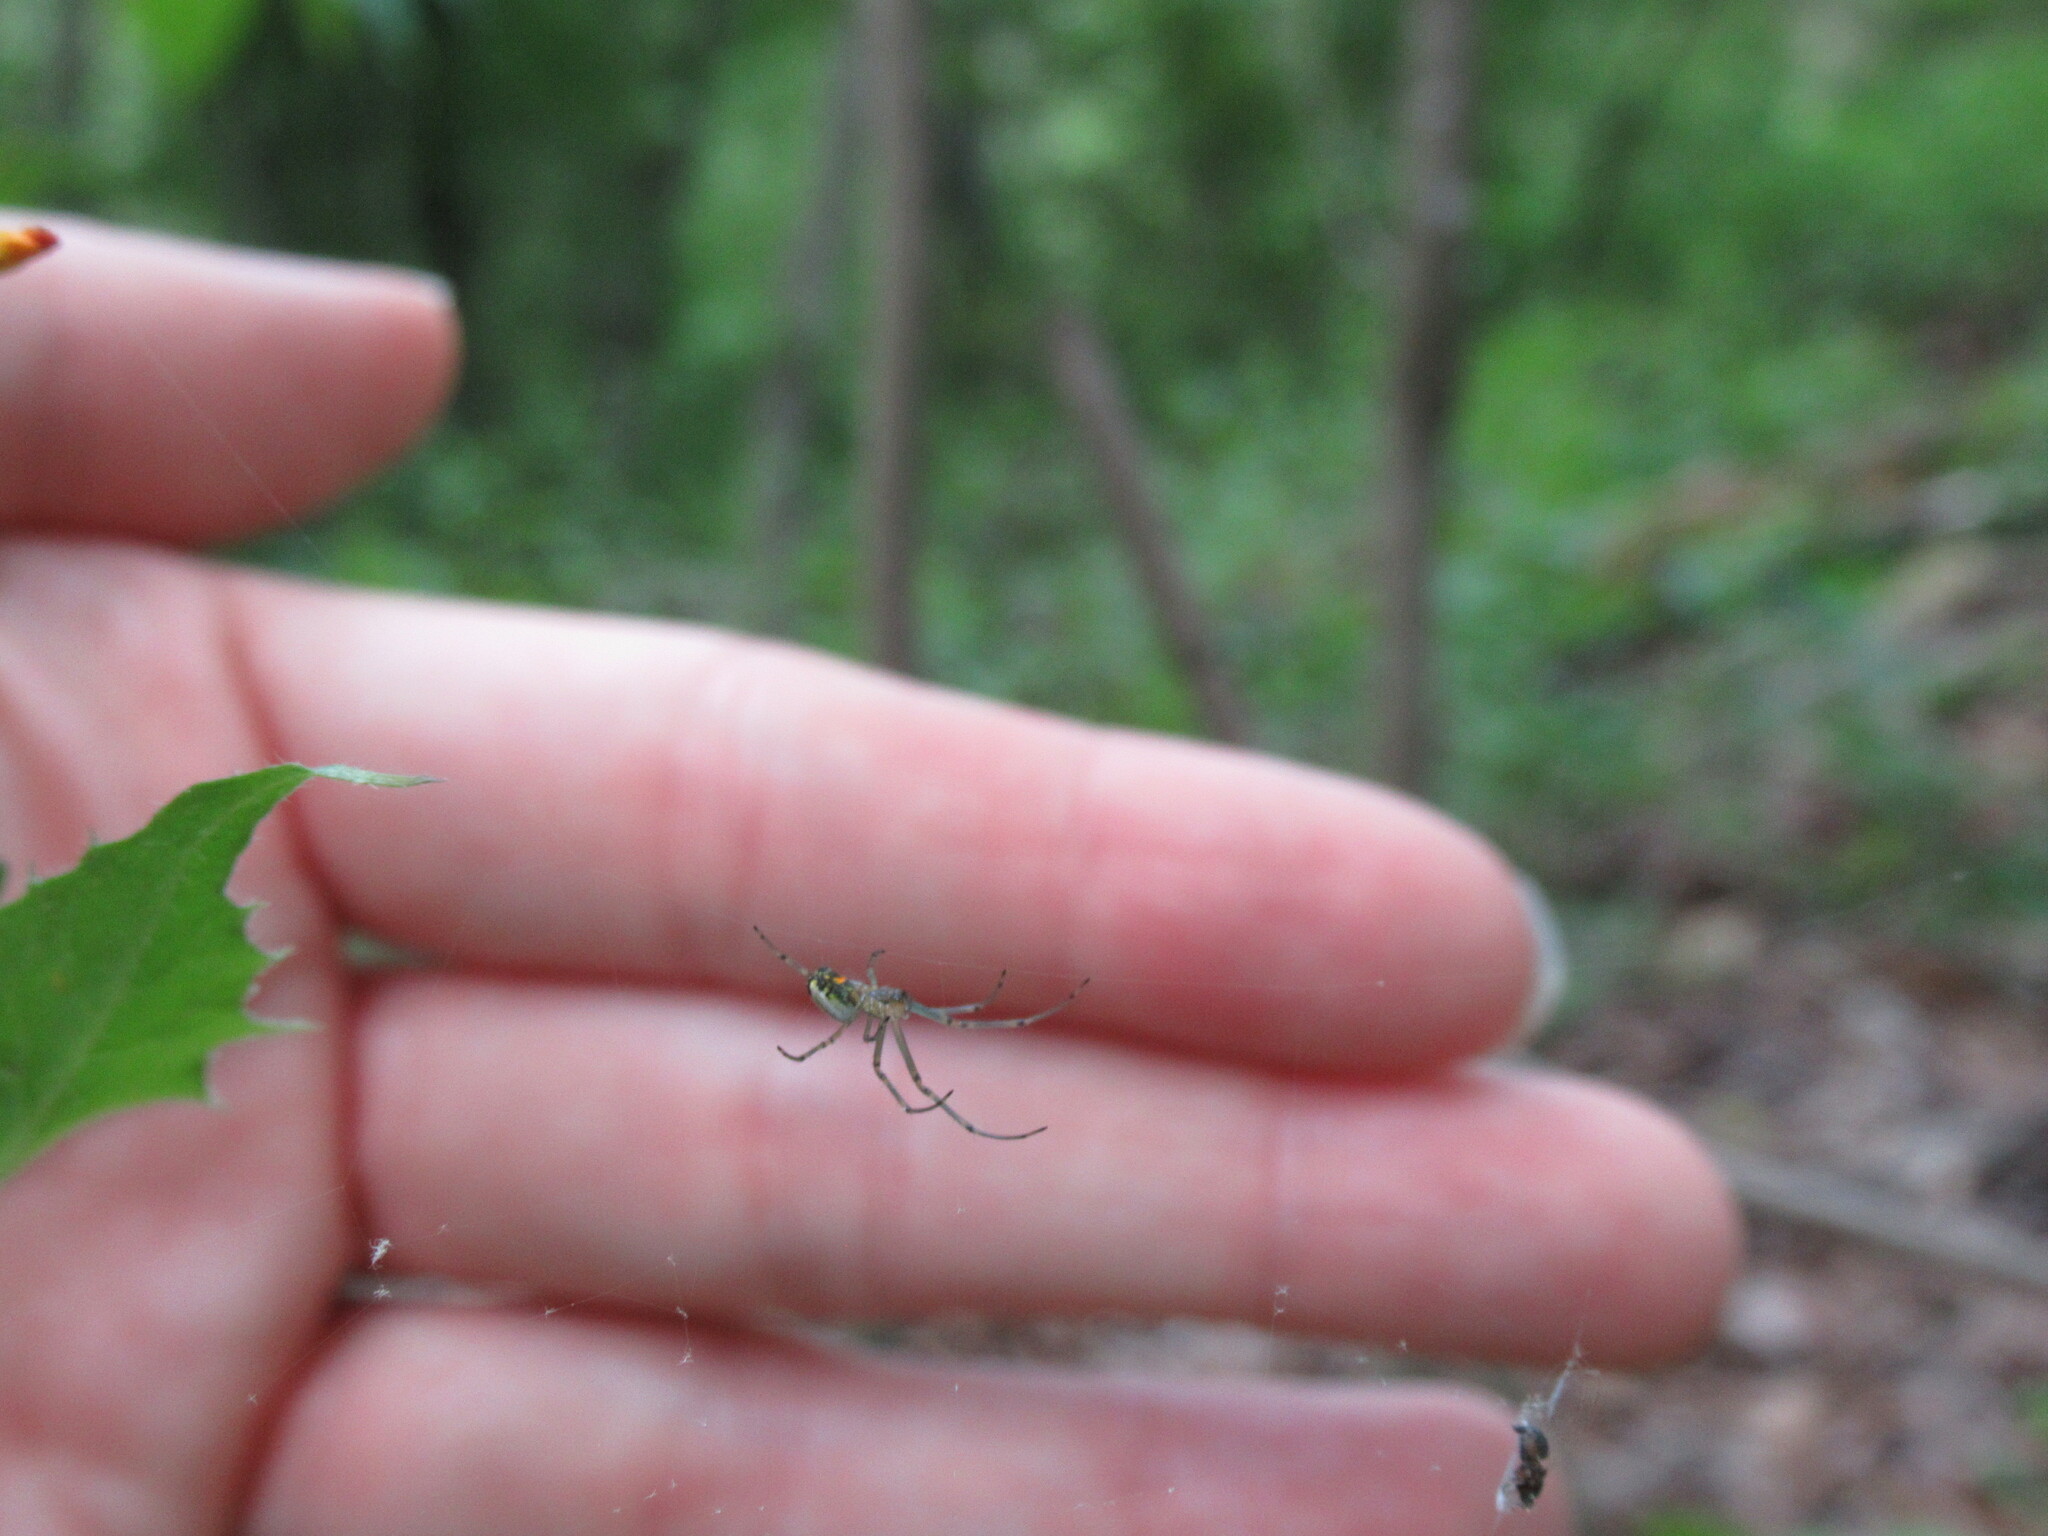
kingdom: Animalia
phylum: Arthropoda
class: Arachnida
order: Araneae
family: Tetragnathidae
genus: Leucauge
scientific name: Leucauge venusta
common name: Longjawed orb weavers
